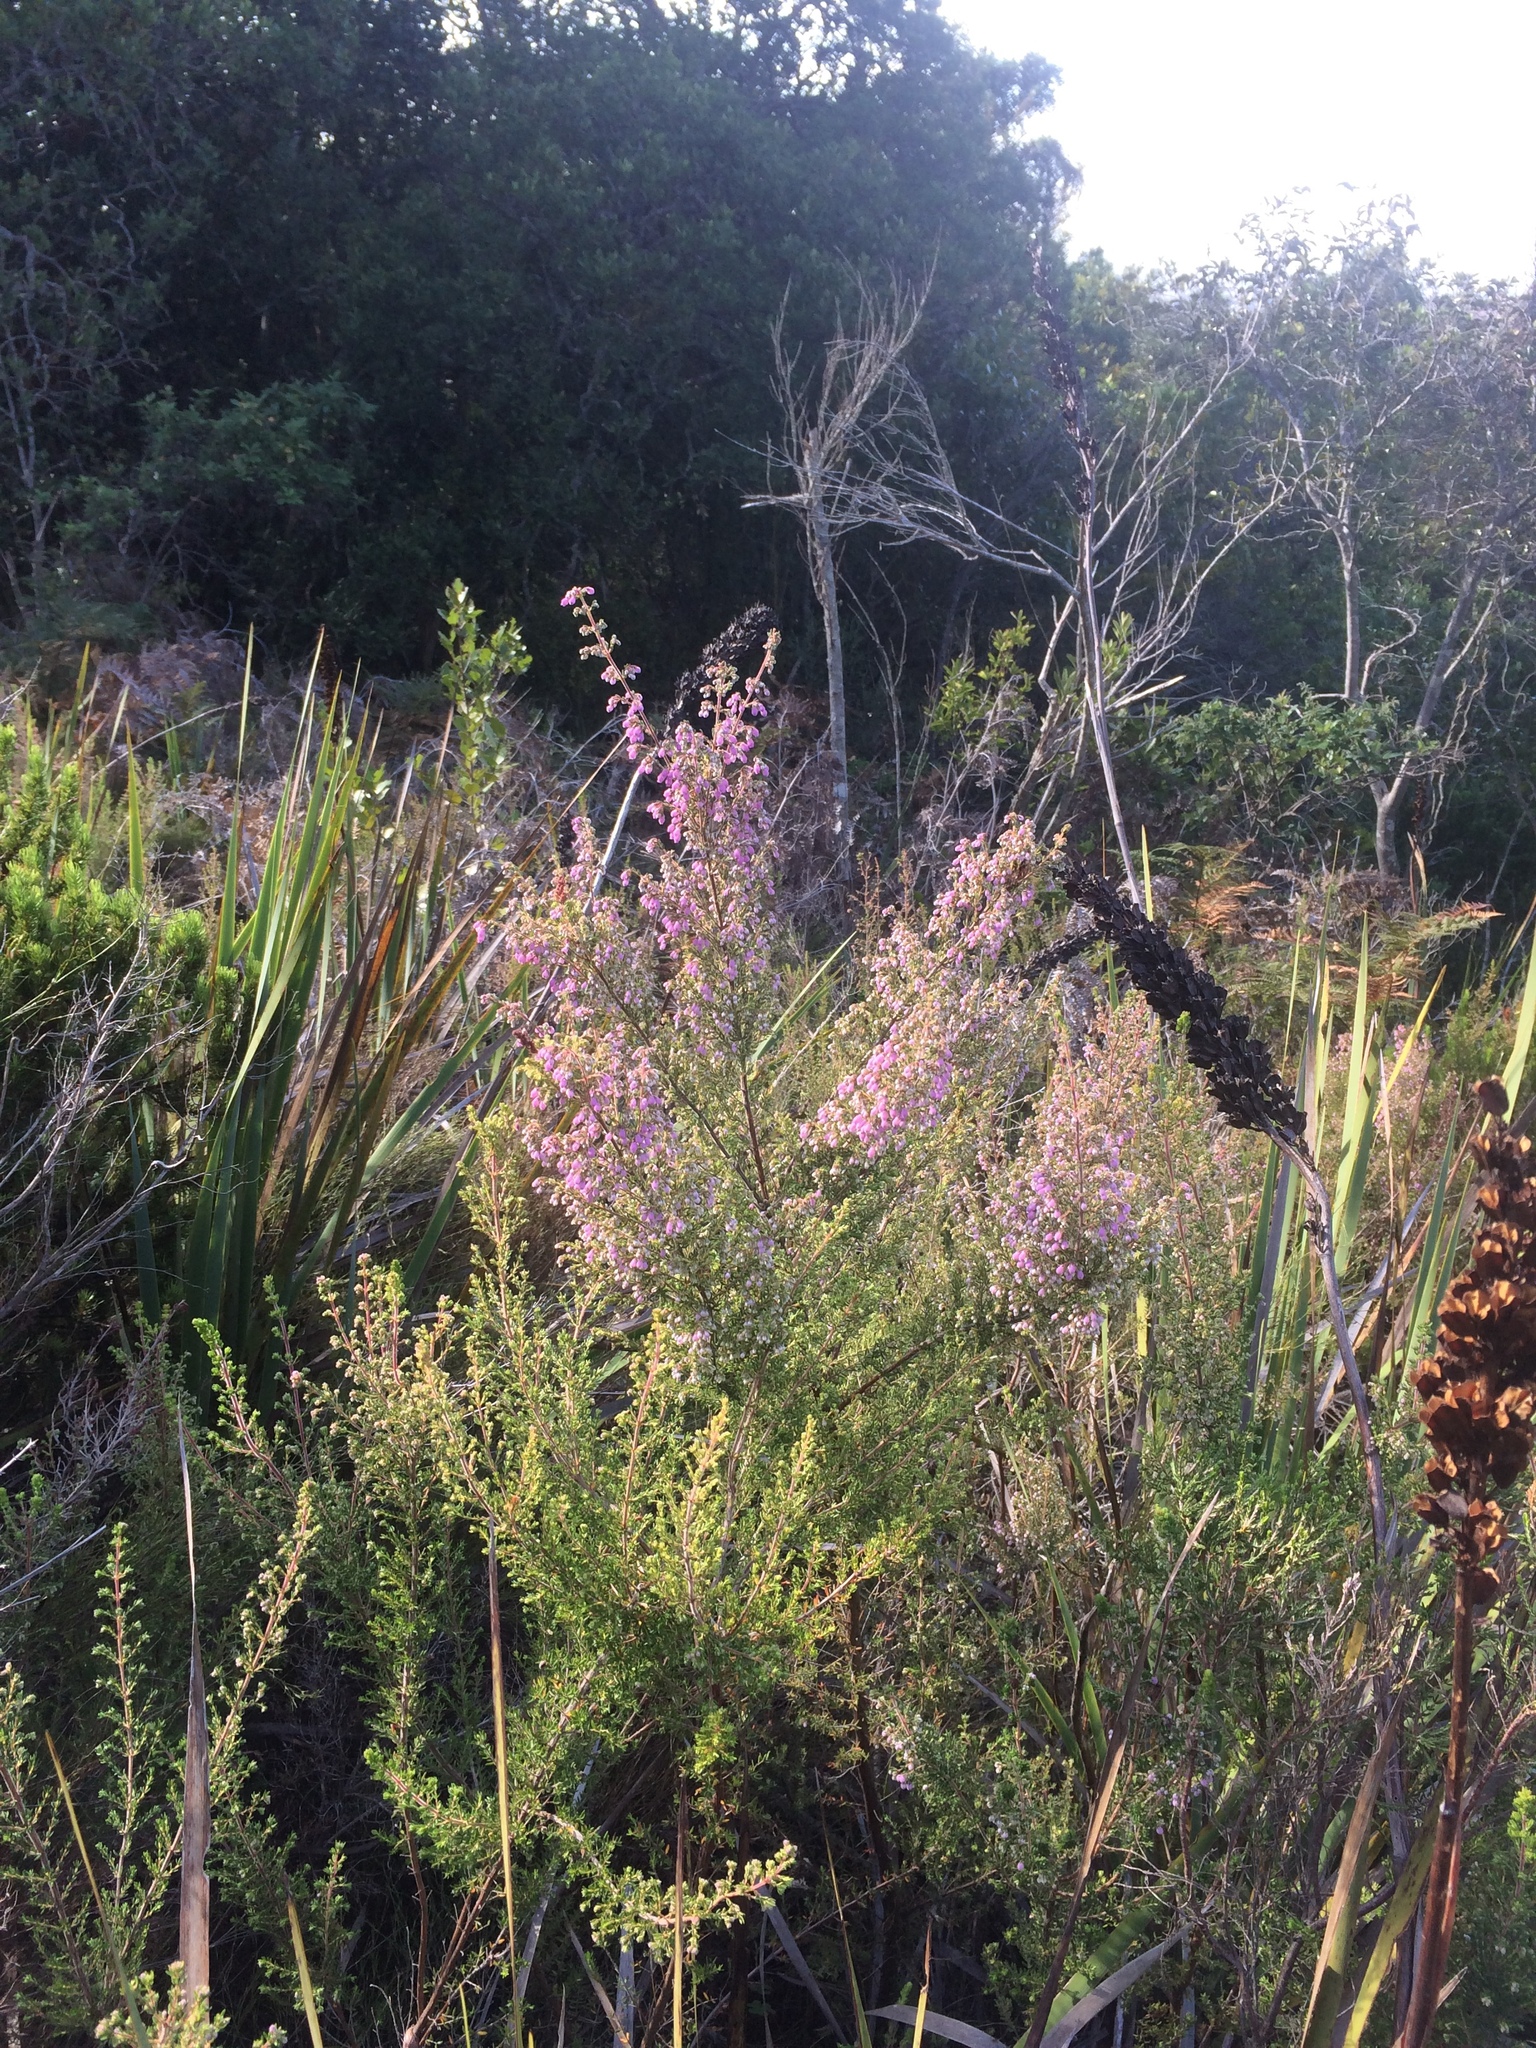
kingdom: Plantae
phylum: Tracheophyta
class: Magnoliopsida
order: Ericales
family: Ericaceae
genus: Erica
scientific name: Erica hirtiflora
